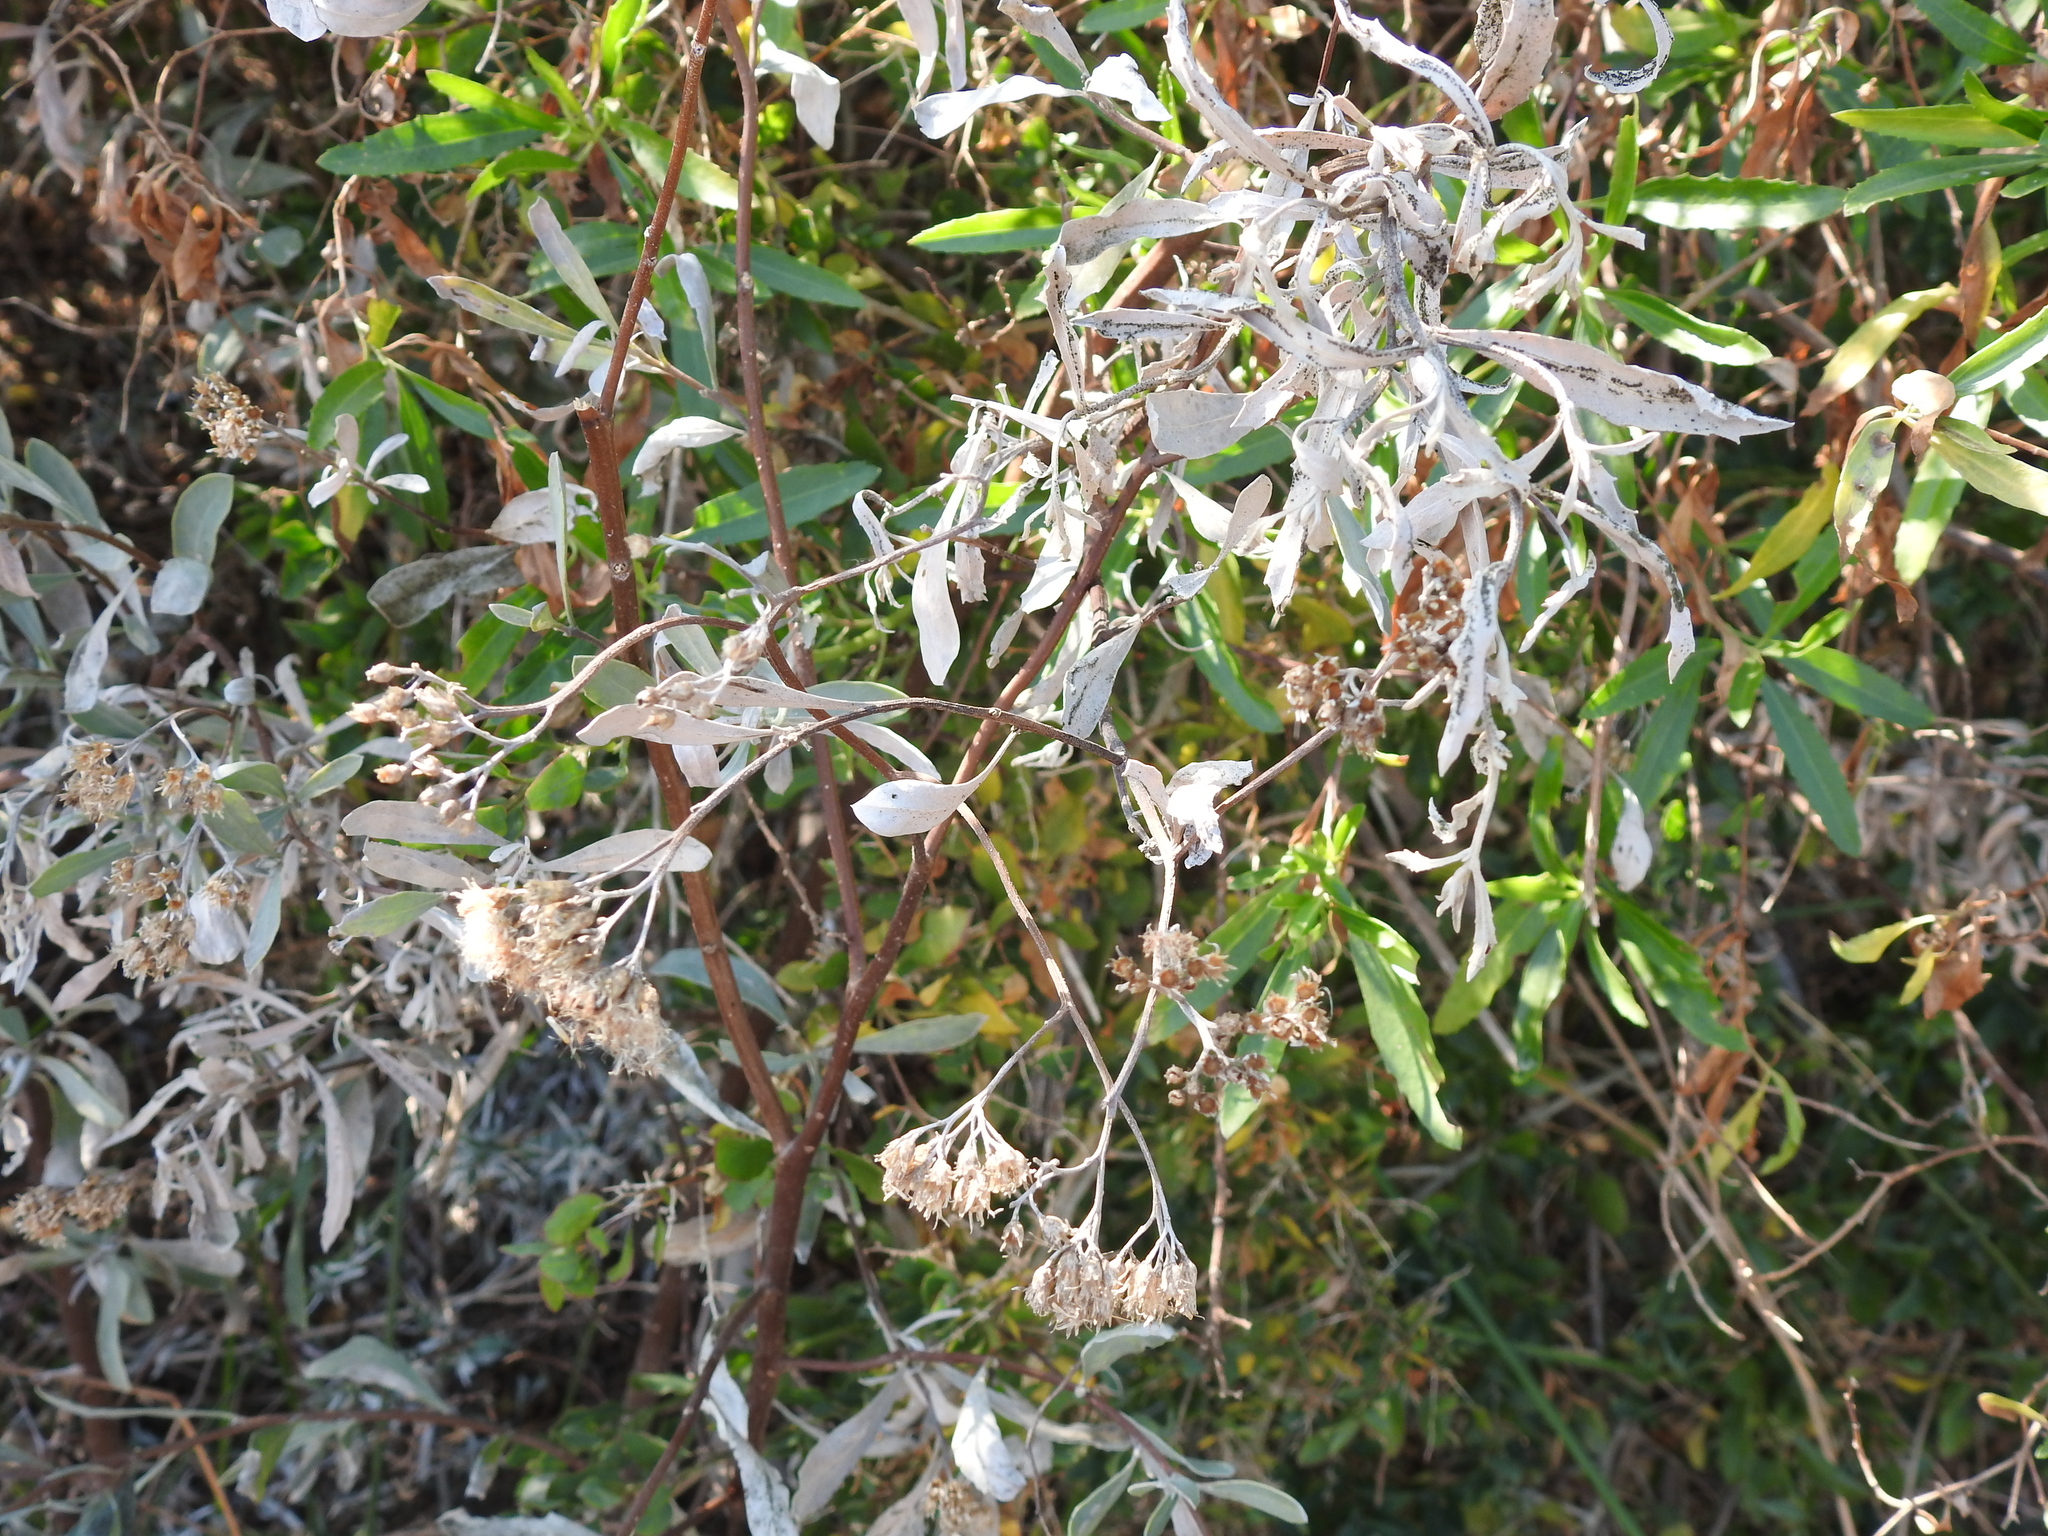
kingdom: Plantae
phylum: Tracheophyta
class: Magnoliopsida
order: Asterales
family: Asteraceae
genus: Tessaria
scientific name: Tessaria integrifolia
